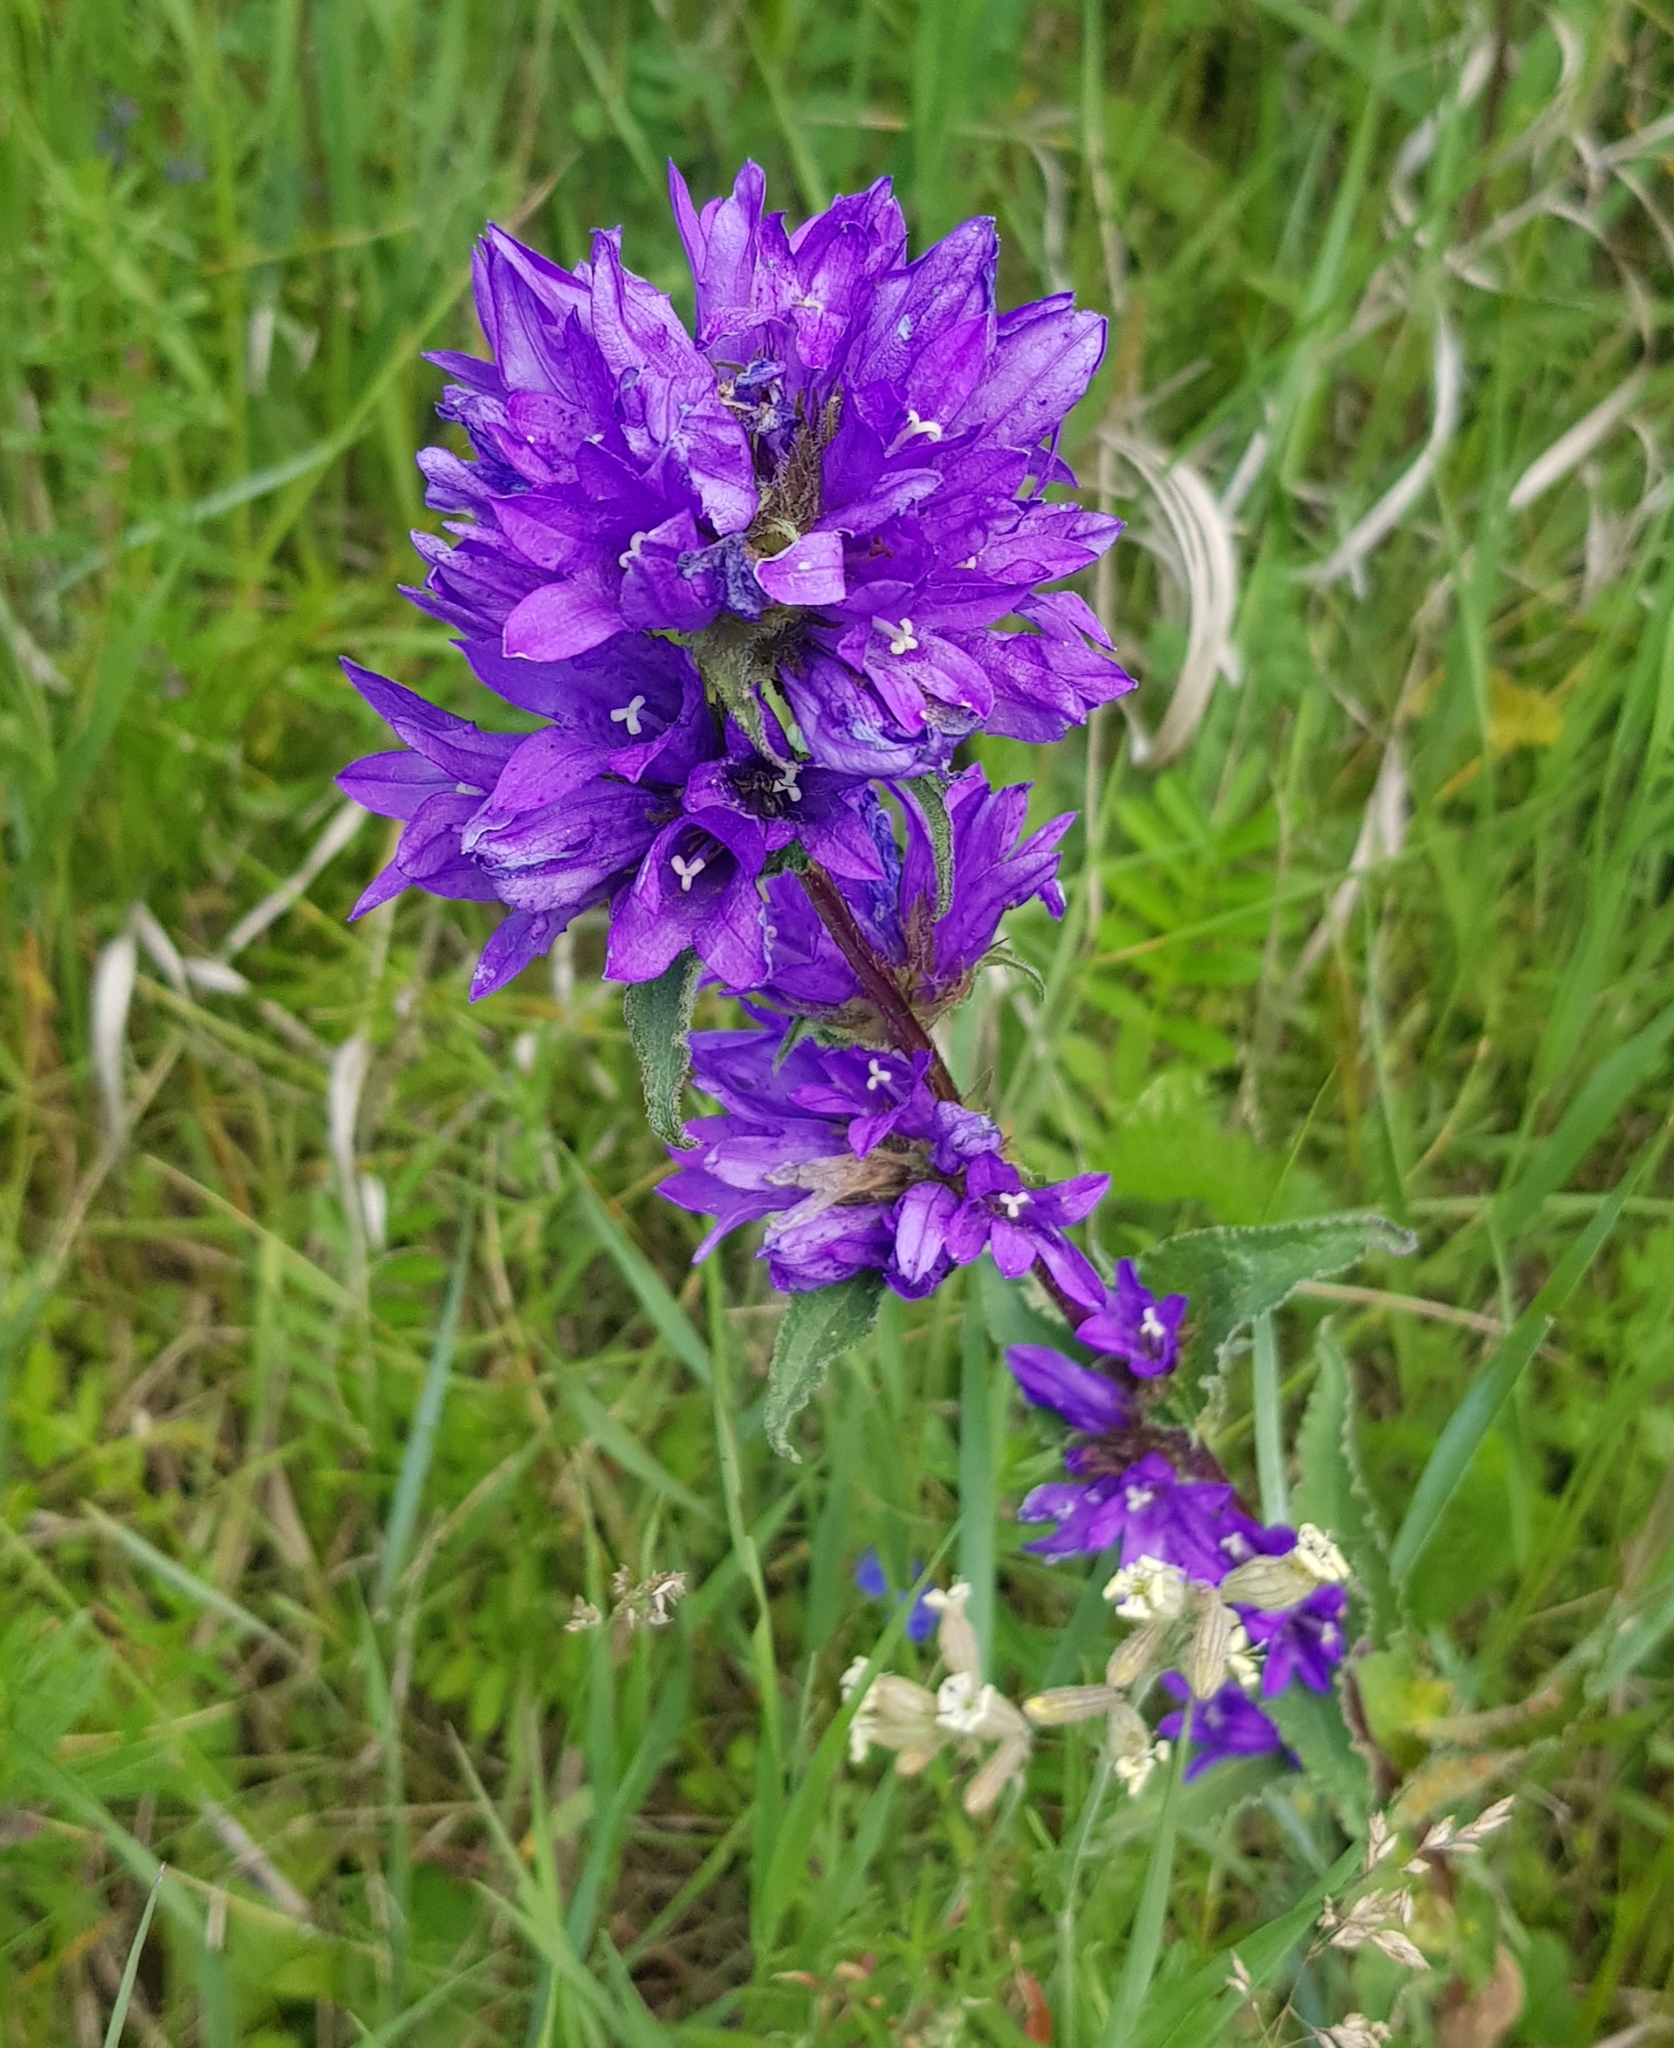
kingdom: Plantae
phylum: Tracheophyta
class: Magnoliopsida
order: Asterales
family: Campanulaceae
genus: Campanula
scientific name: Campanula glomerata
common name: Clustered bellflower
